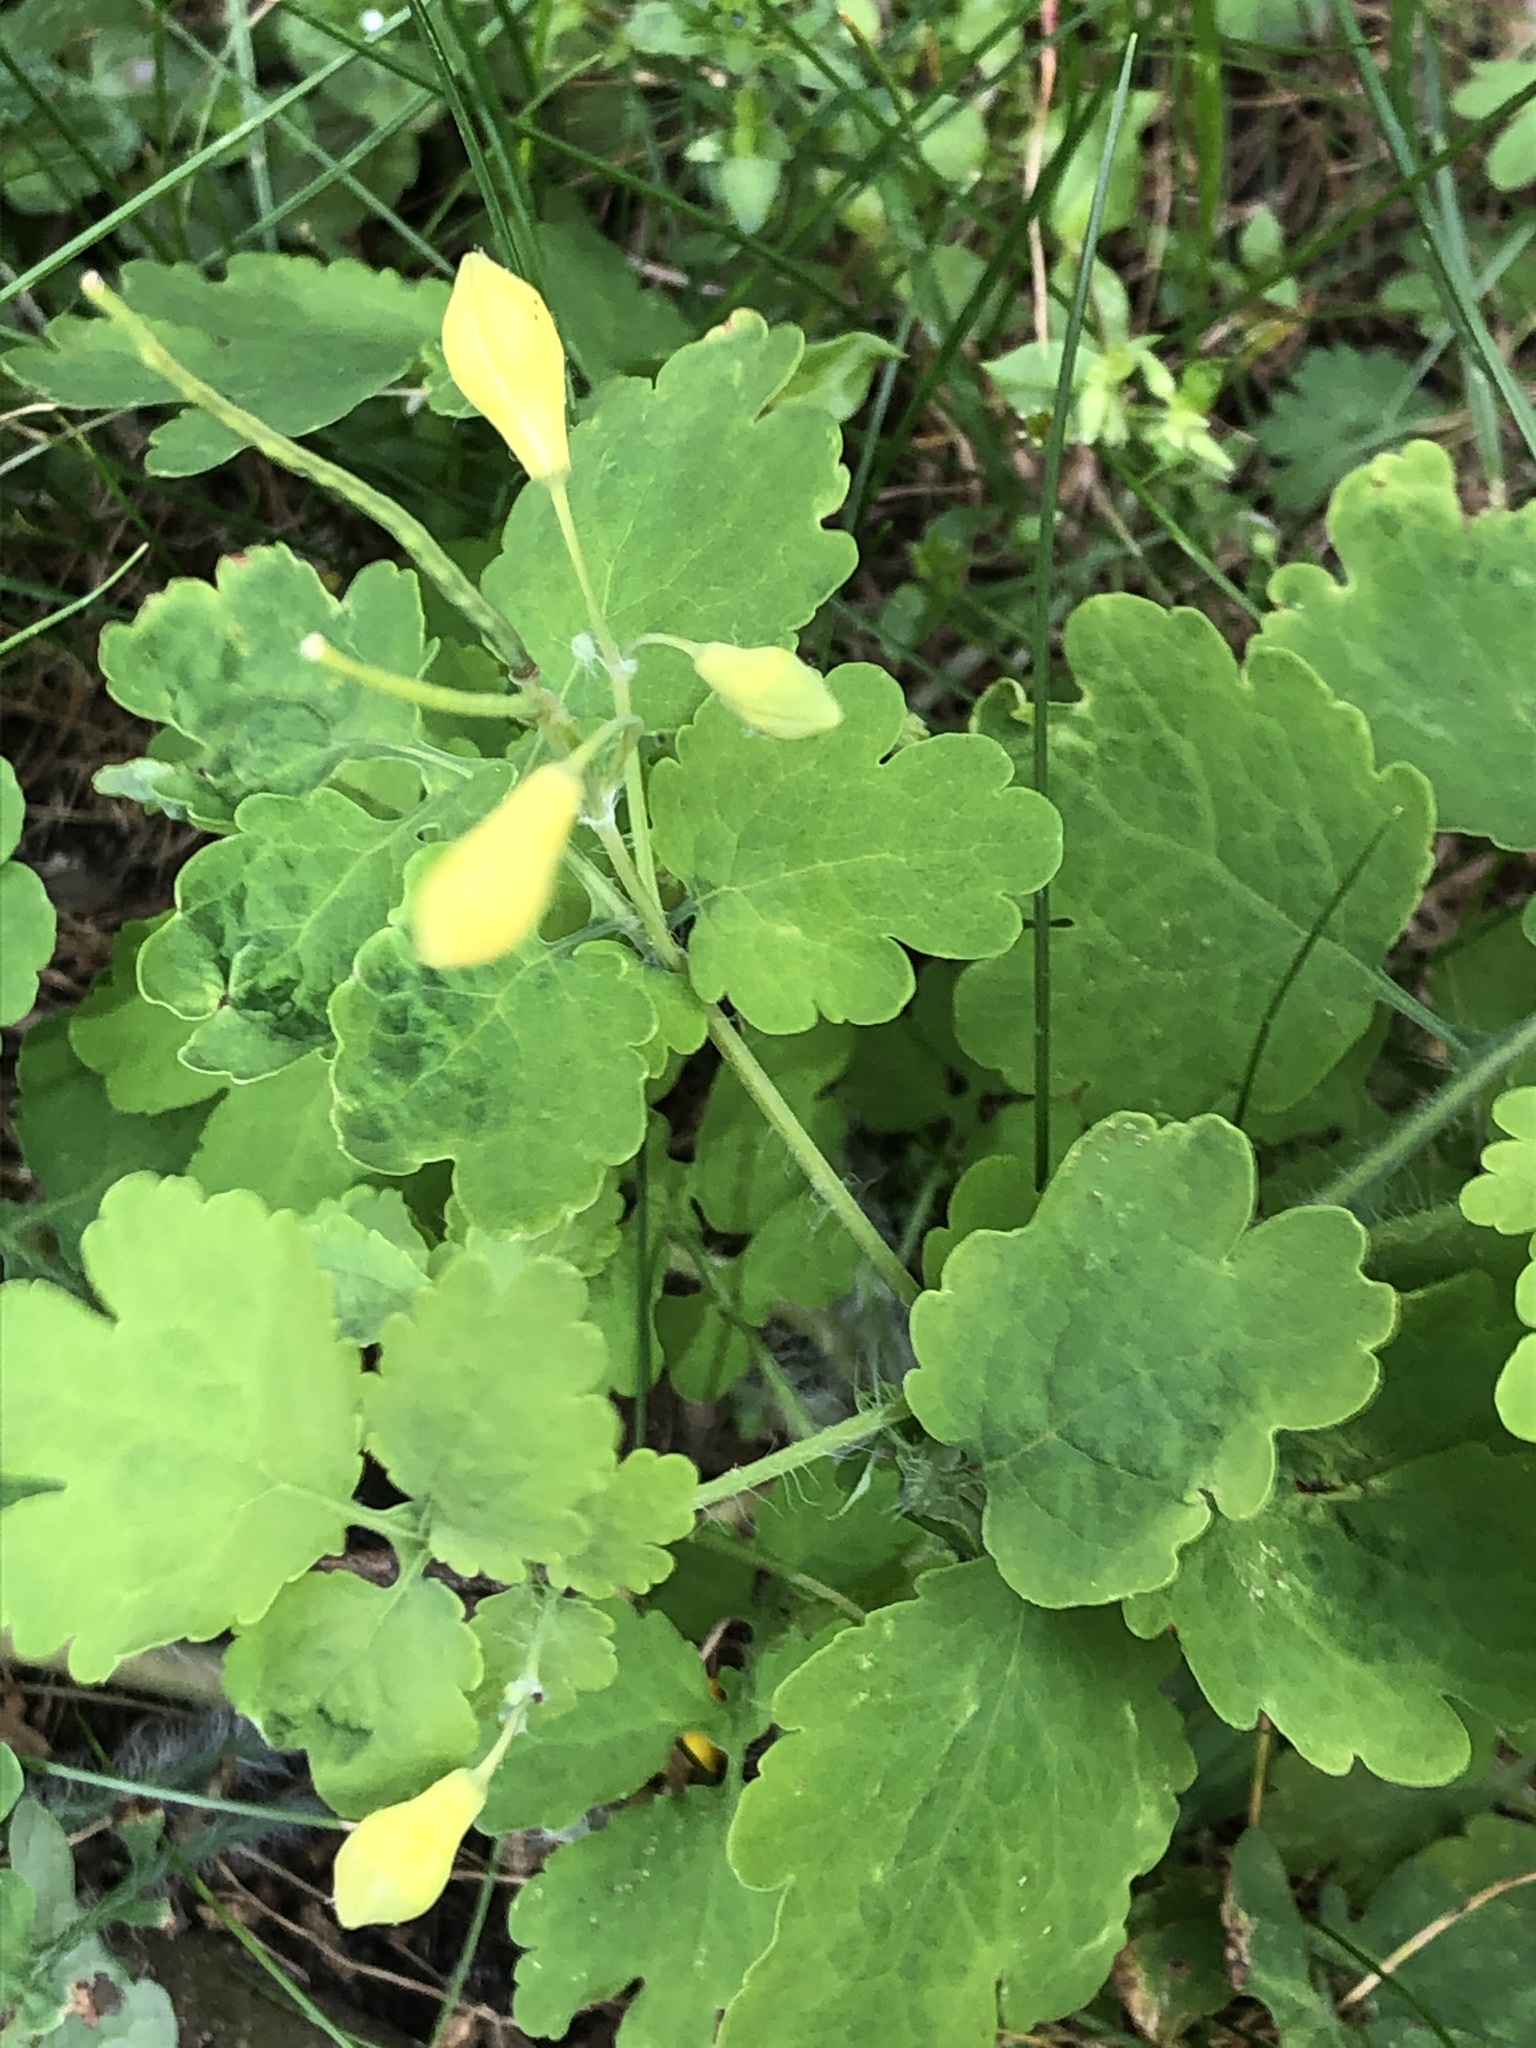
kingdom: Plantae
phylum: Tracheophyta
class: Magnoliopsida
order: Ranunculales
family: Papaveraceae
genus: Chelidonium
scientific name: Chelidonium majus
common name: Greater celandine
